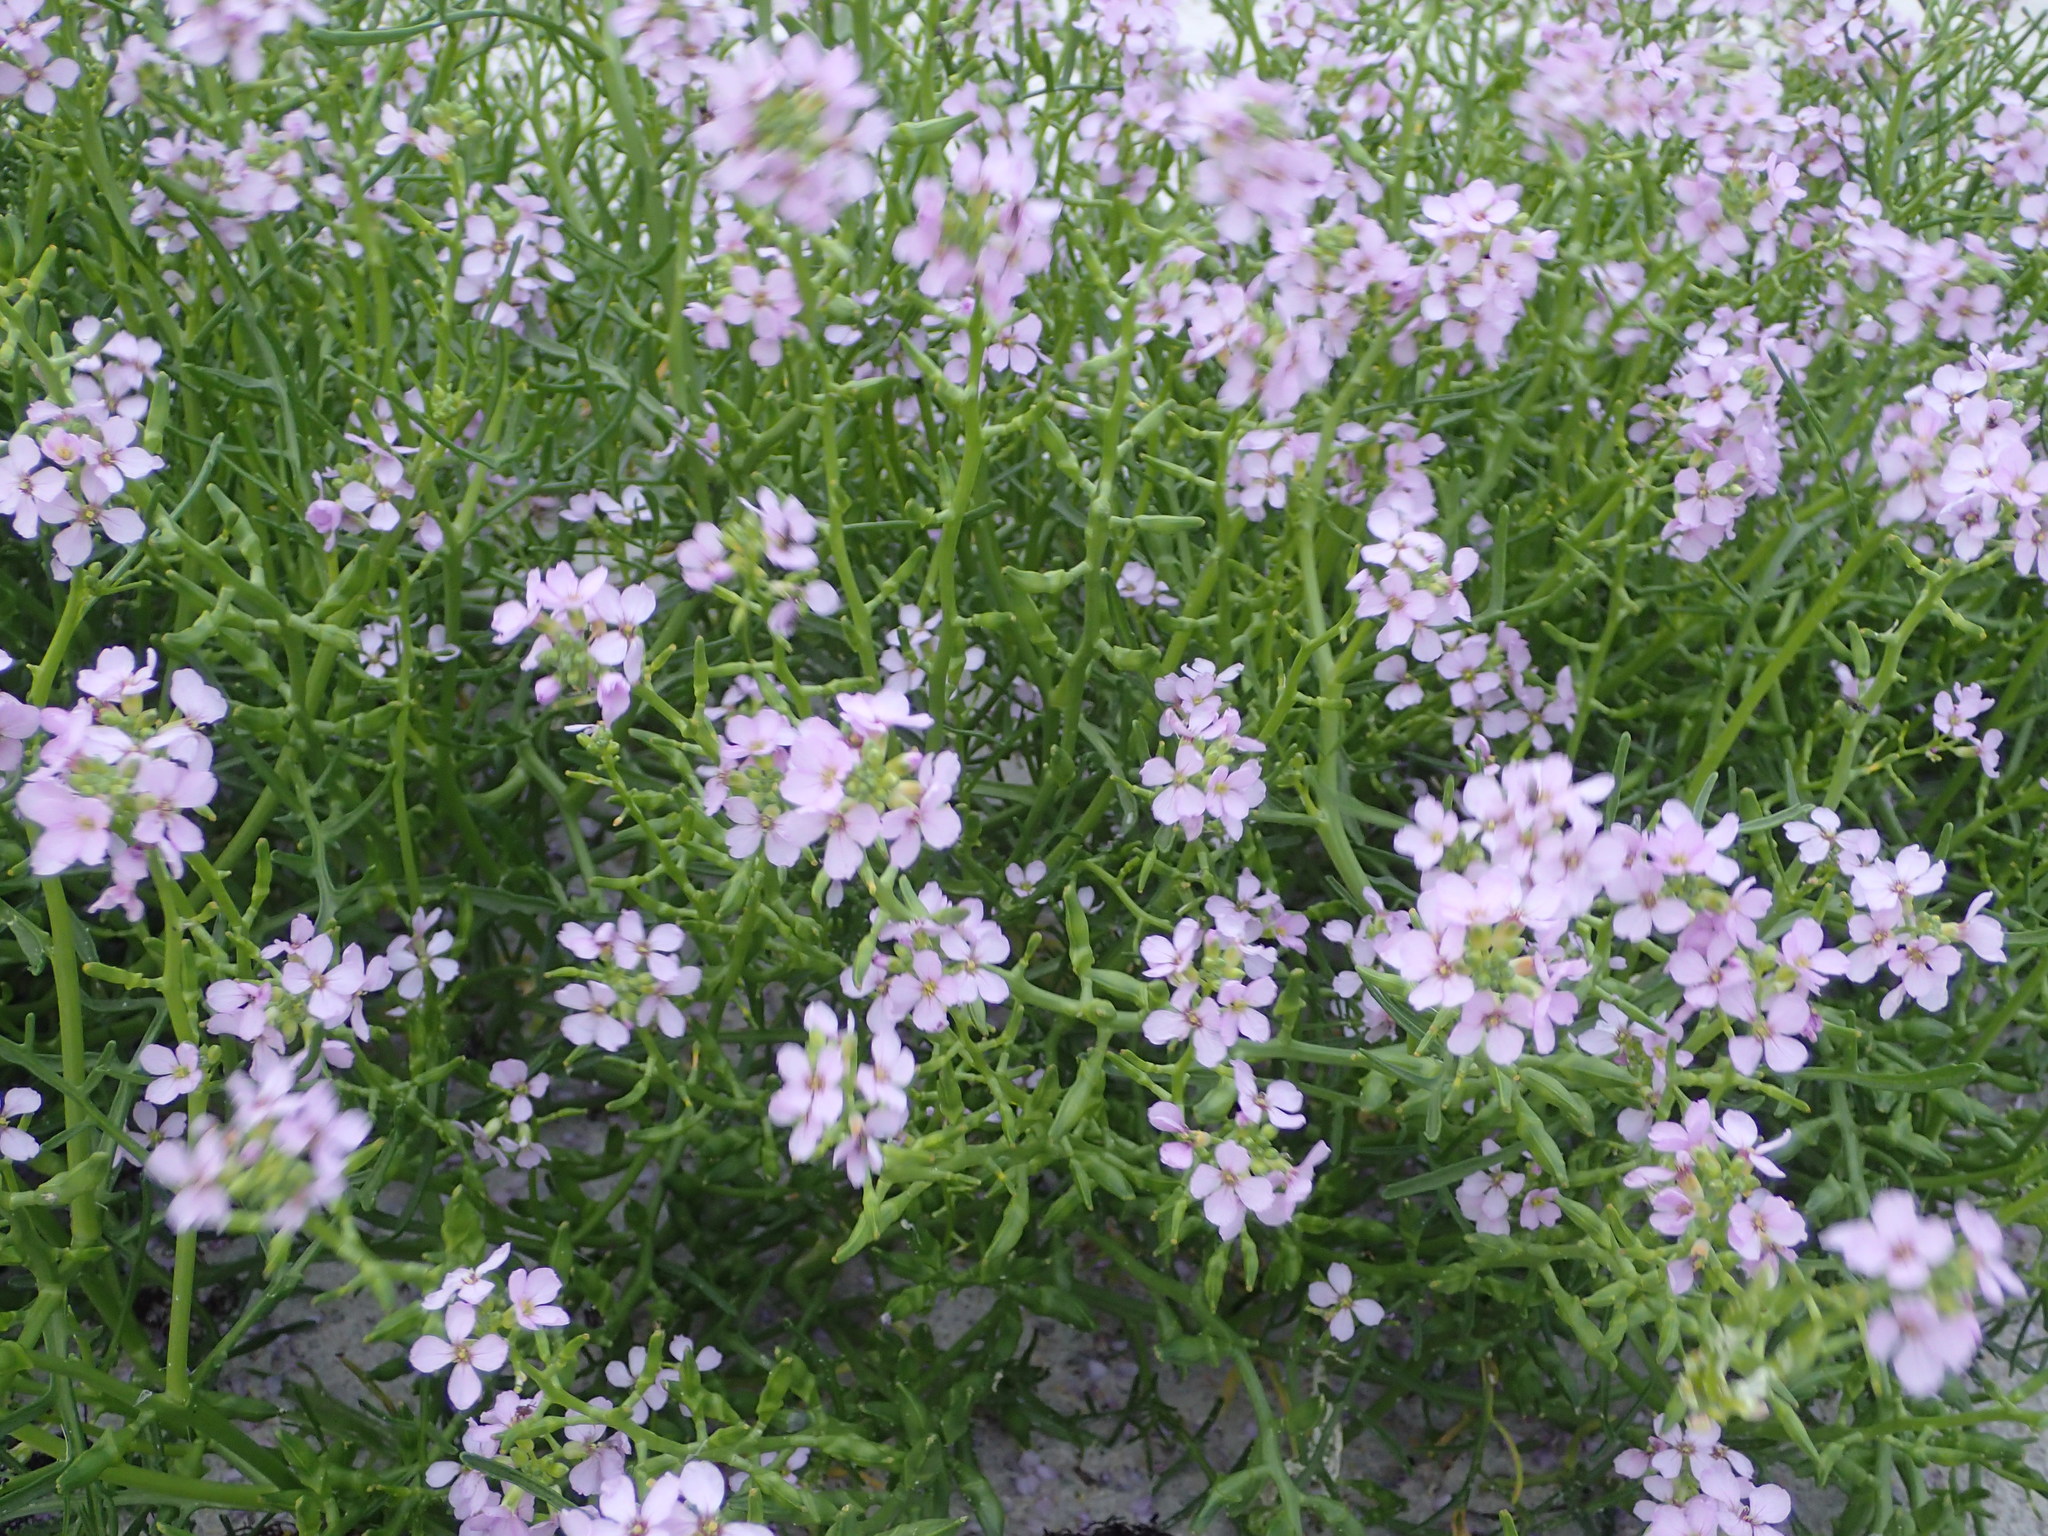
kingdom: Plantae
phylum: Tracheophyta
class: Pinopsida
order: Pinales
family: Pinaceae
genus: Picea
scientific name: Picea abies
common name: Norway spruce
